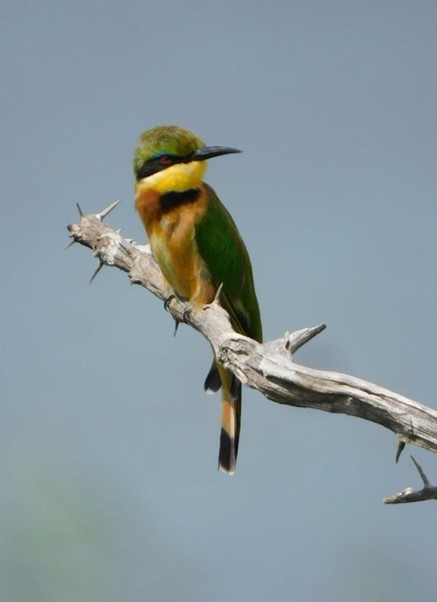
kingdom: Animalia
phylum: Chordata
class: Aves
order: Coraciiformes
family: Meropidae
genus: Merops
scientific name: Merops pusillus
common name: Little bee-eater
